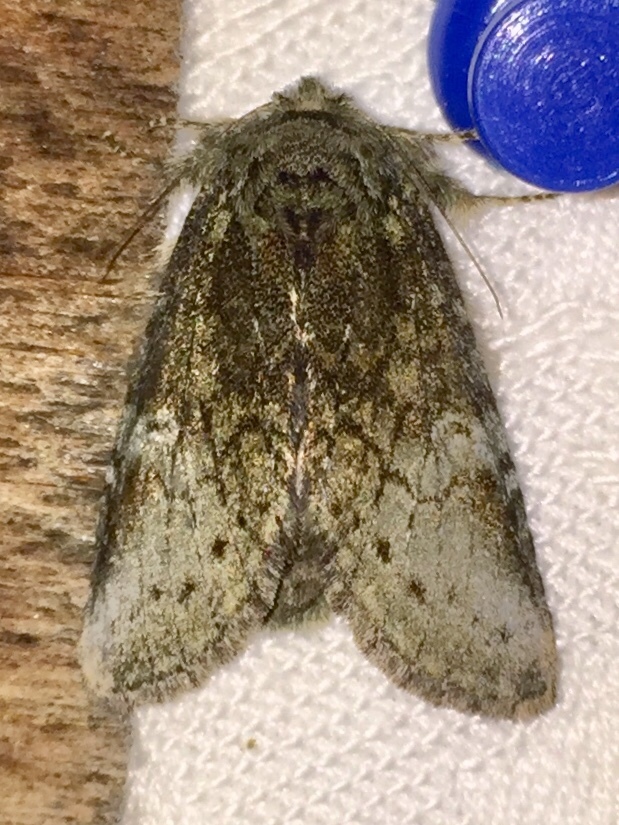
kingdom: Animalia
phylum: Arthropoda
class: Insecta
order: Lepidoptera
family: Notodontidae
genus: Disphragis
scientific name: Disphragis Cecrita guttivitta
